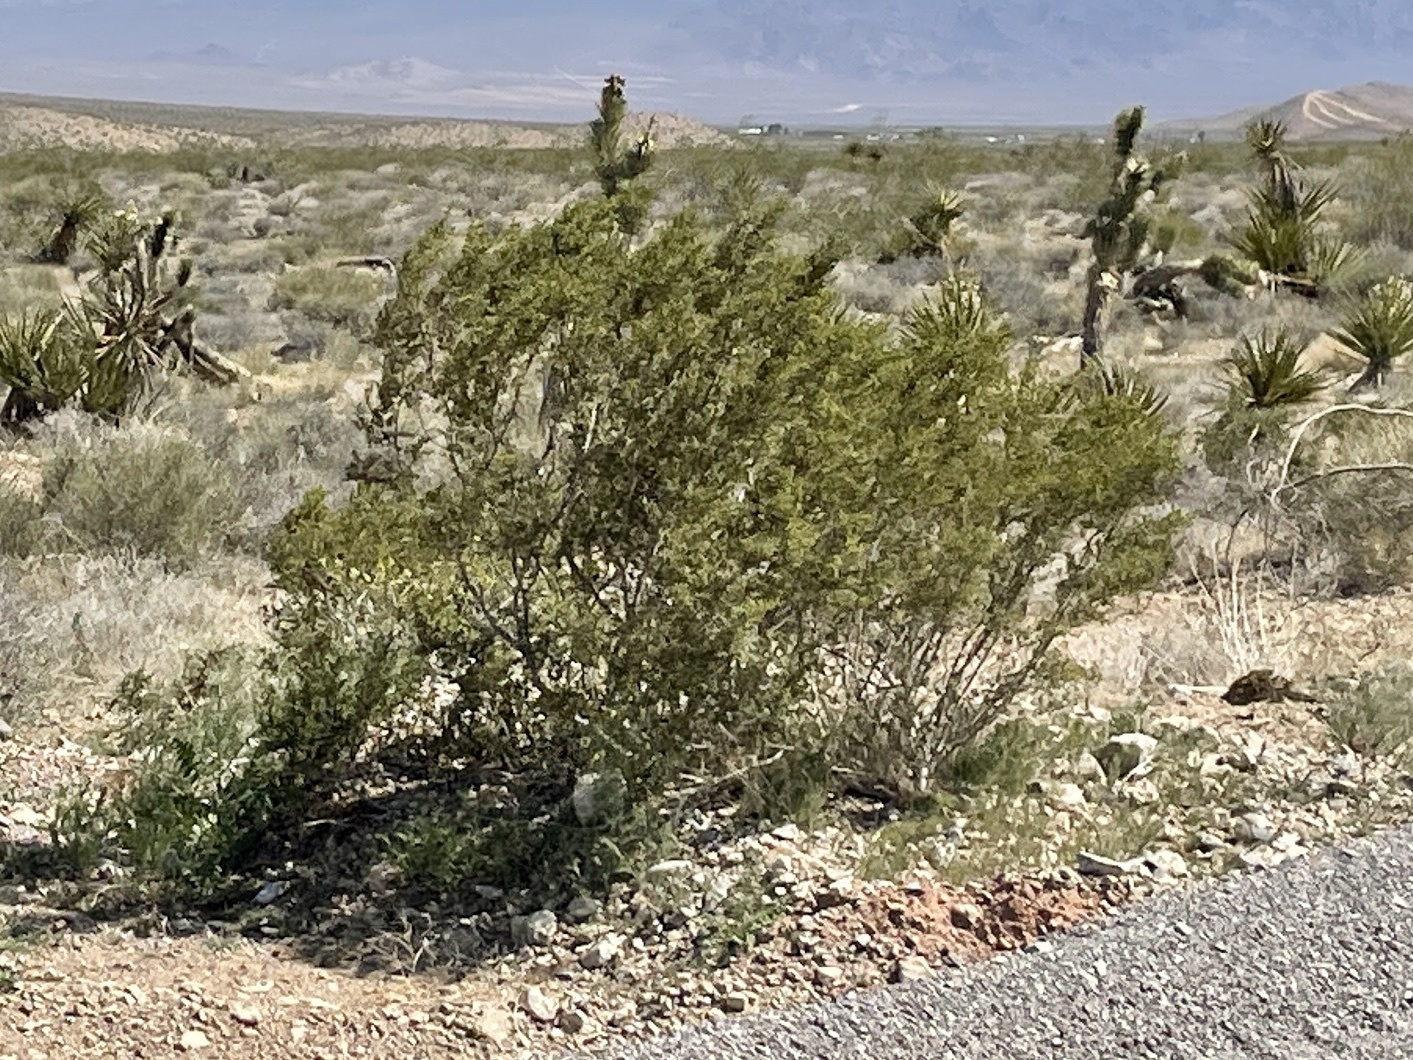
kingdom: Plantae
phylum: Tracheophyta
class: Magnoliopsida
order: Zygophyllales
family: Zygophyllaceae
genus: Larrea
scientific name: Larrea tridentata
